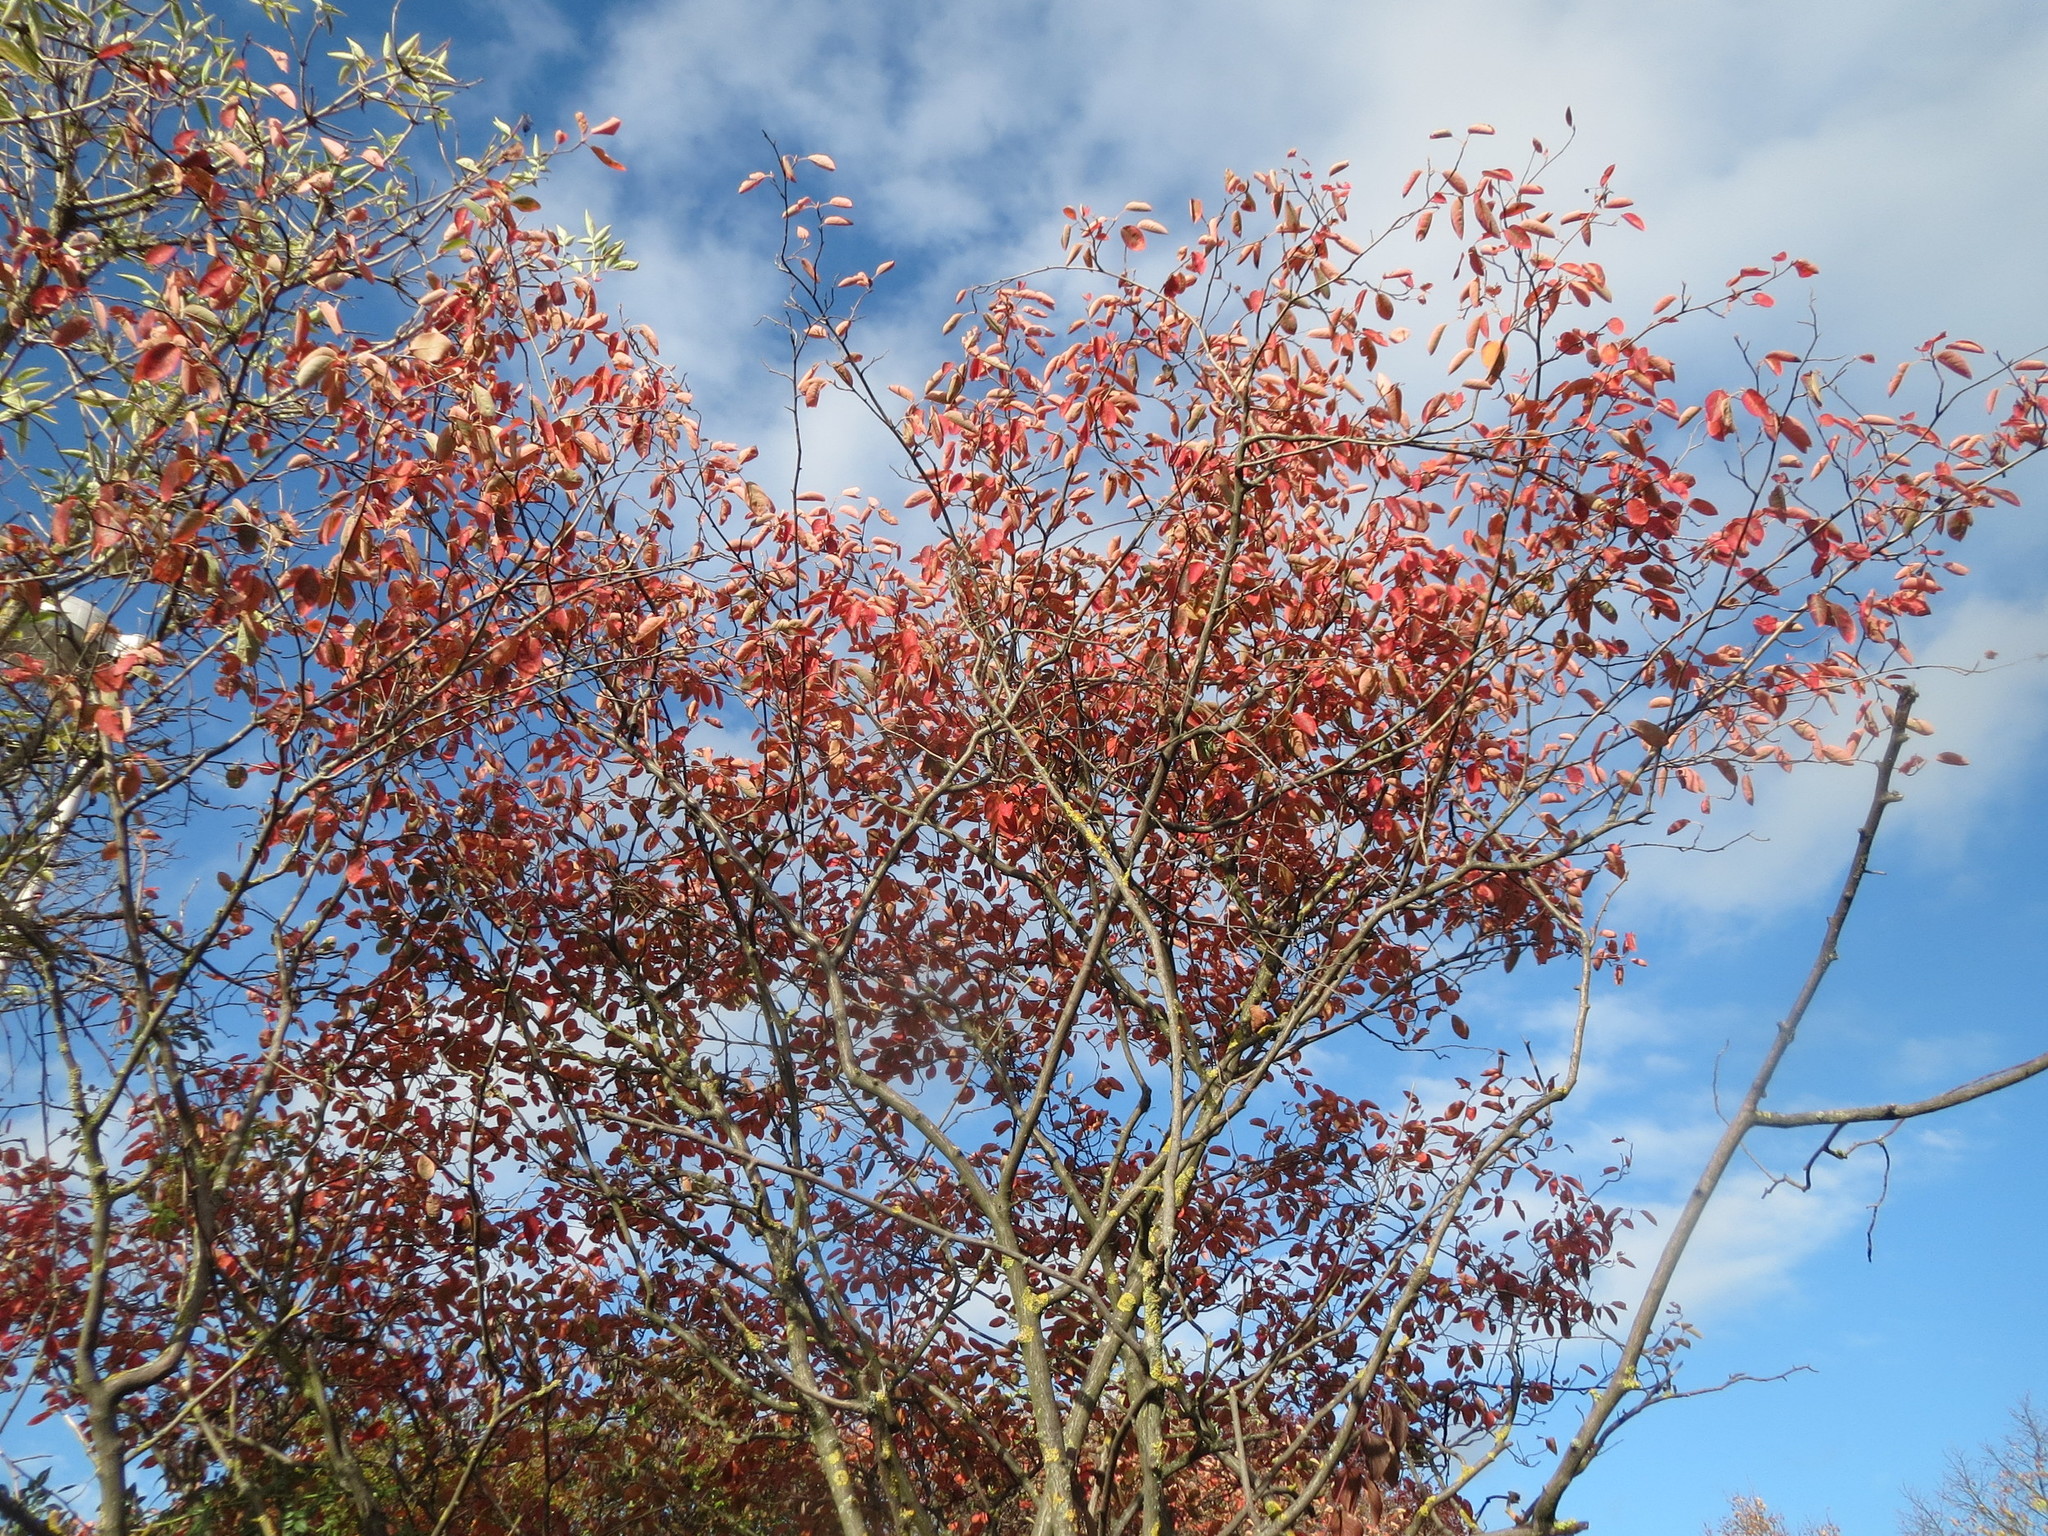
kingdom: Plantae
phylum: Tracheophyta
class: Magnoliopsida
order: Rosales
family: Rosaceae
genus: Amelanchier
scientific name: Amelanchier lamarckii
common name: Juneberry
